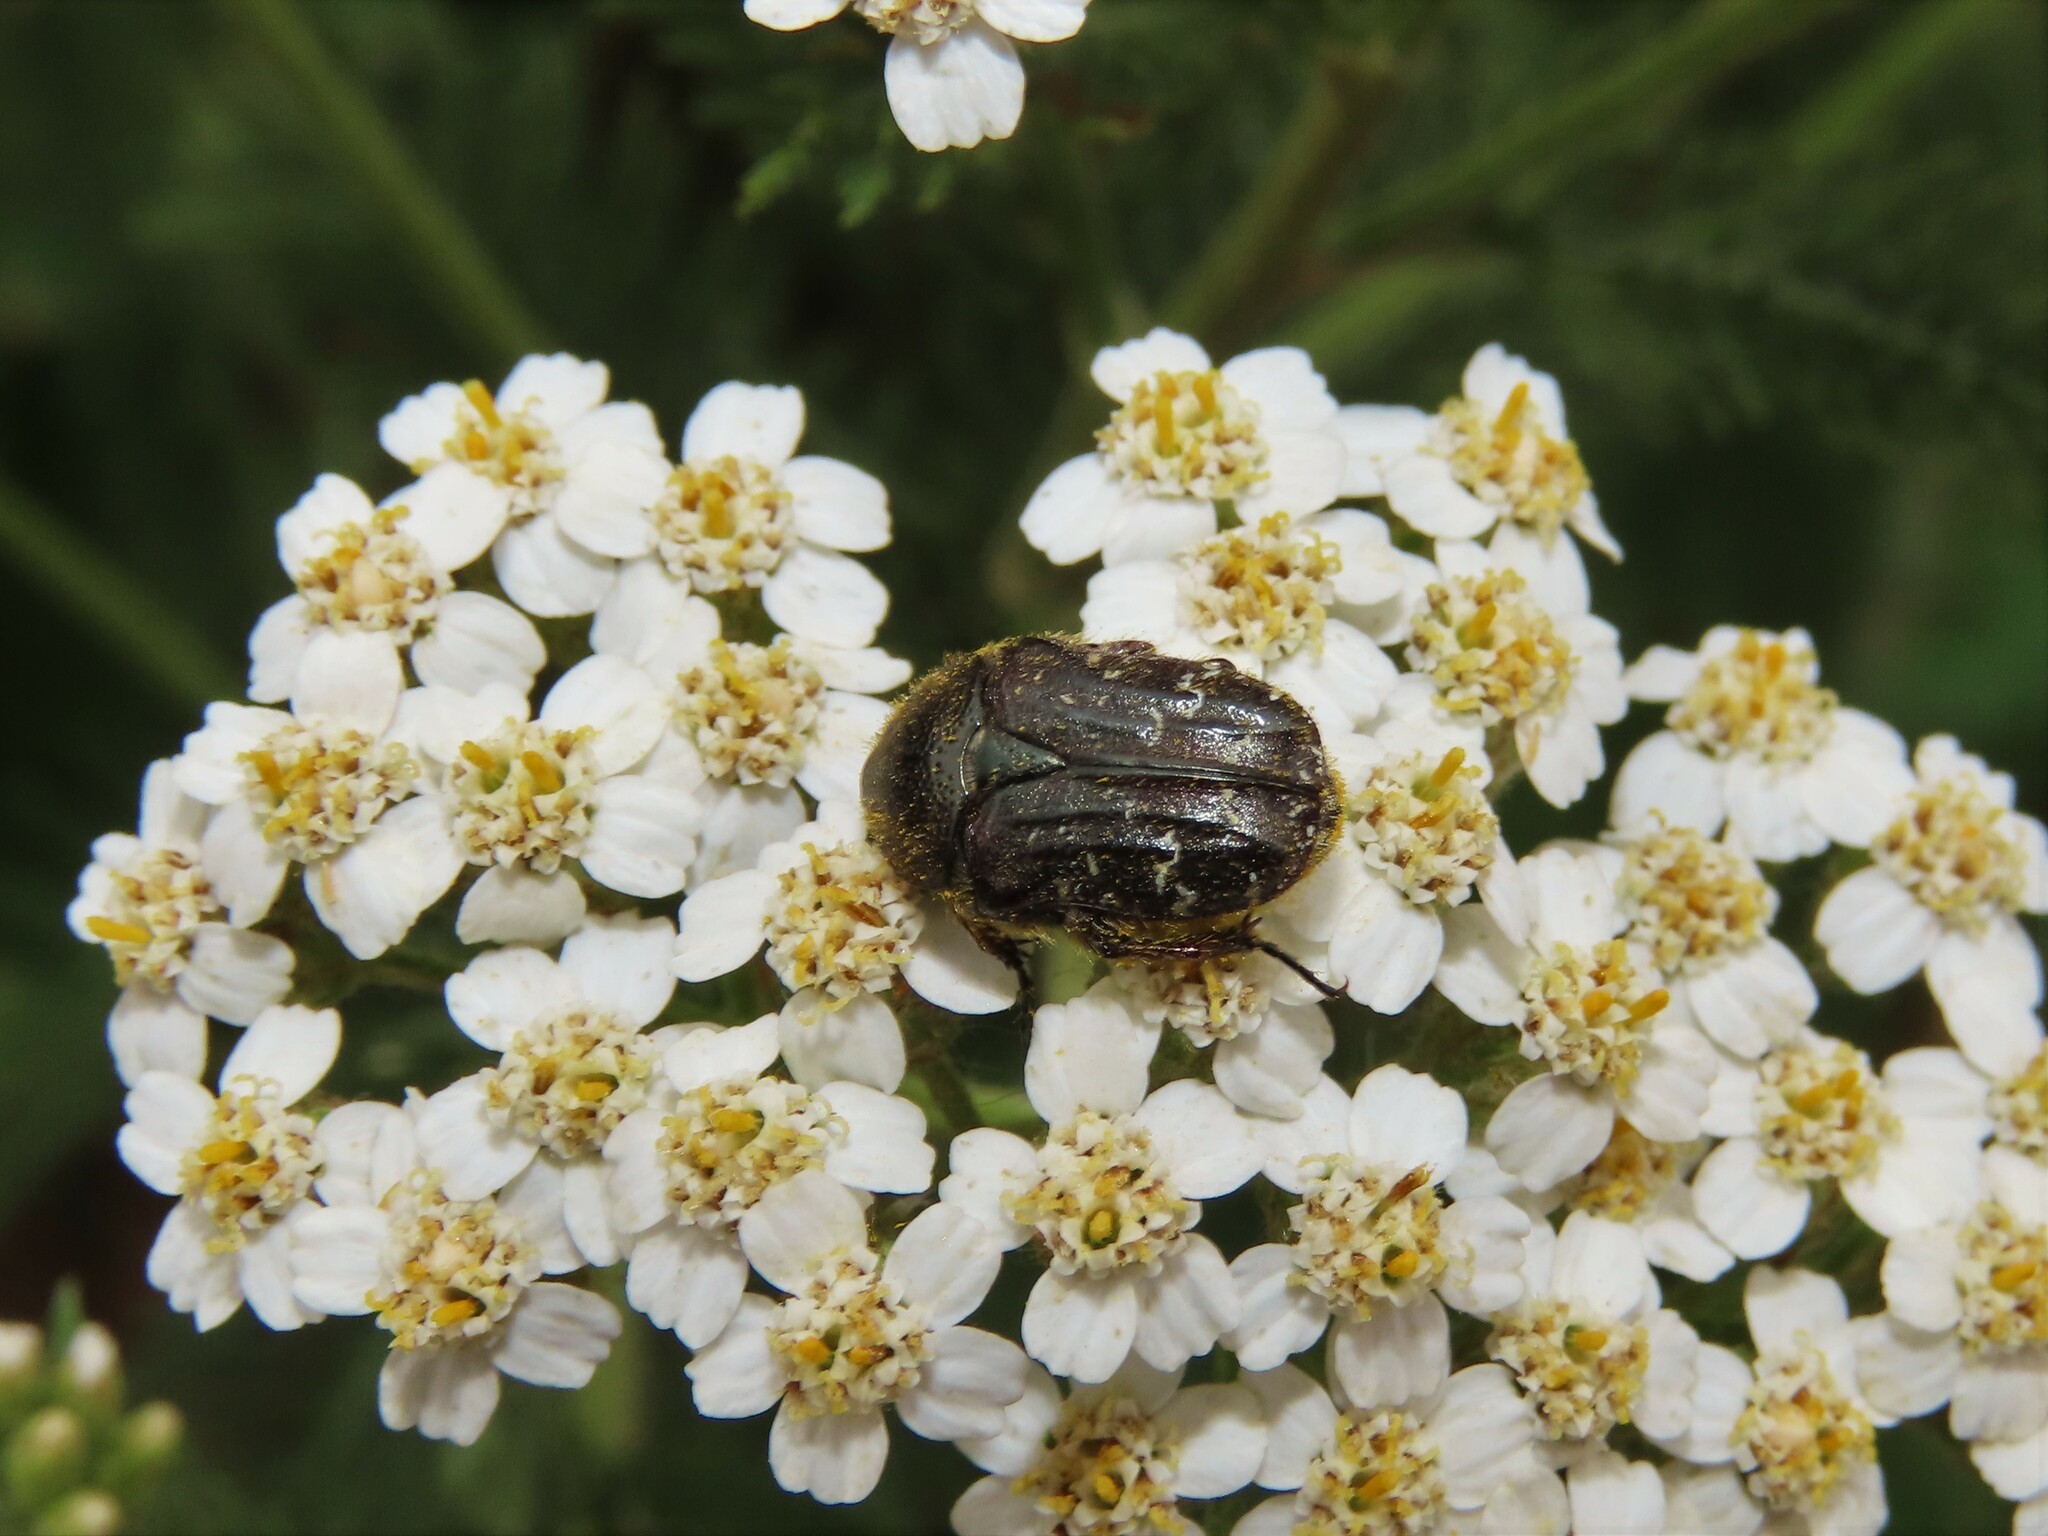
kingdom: Animalia
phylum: Arthropoda
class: Insecta
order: Coleoptera
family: Scarabaeidae
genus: Euphoria
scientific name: Euphoria sepulcralis
